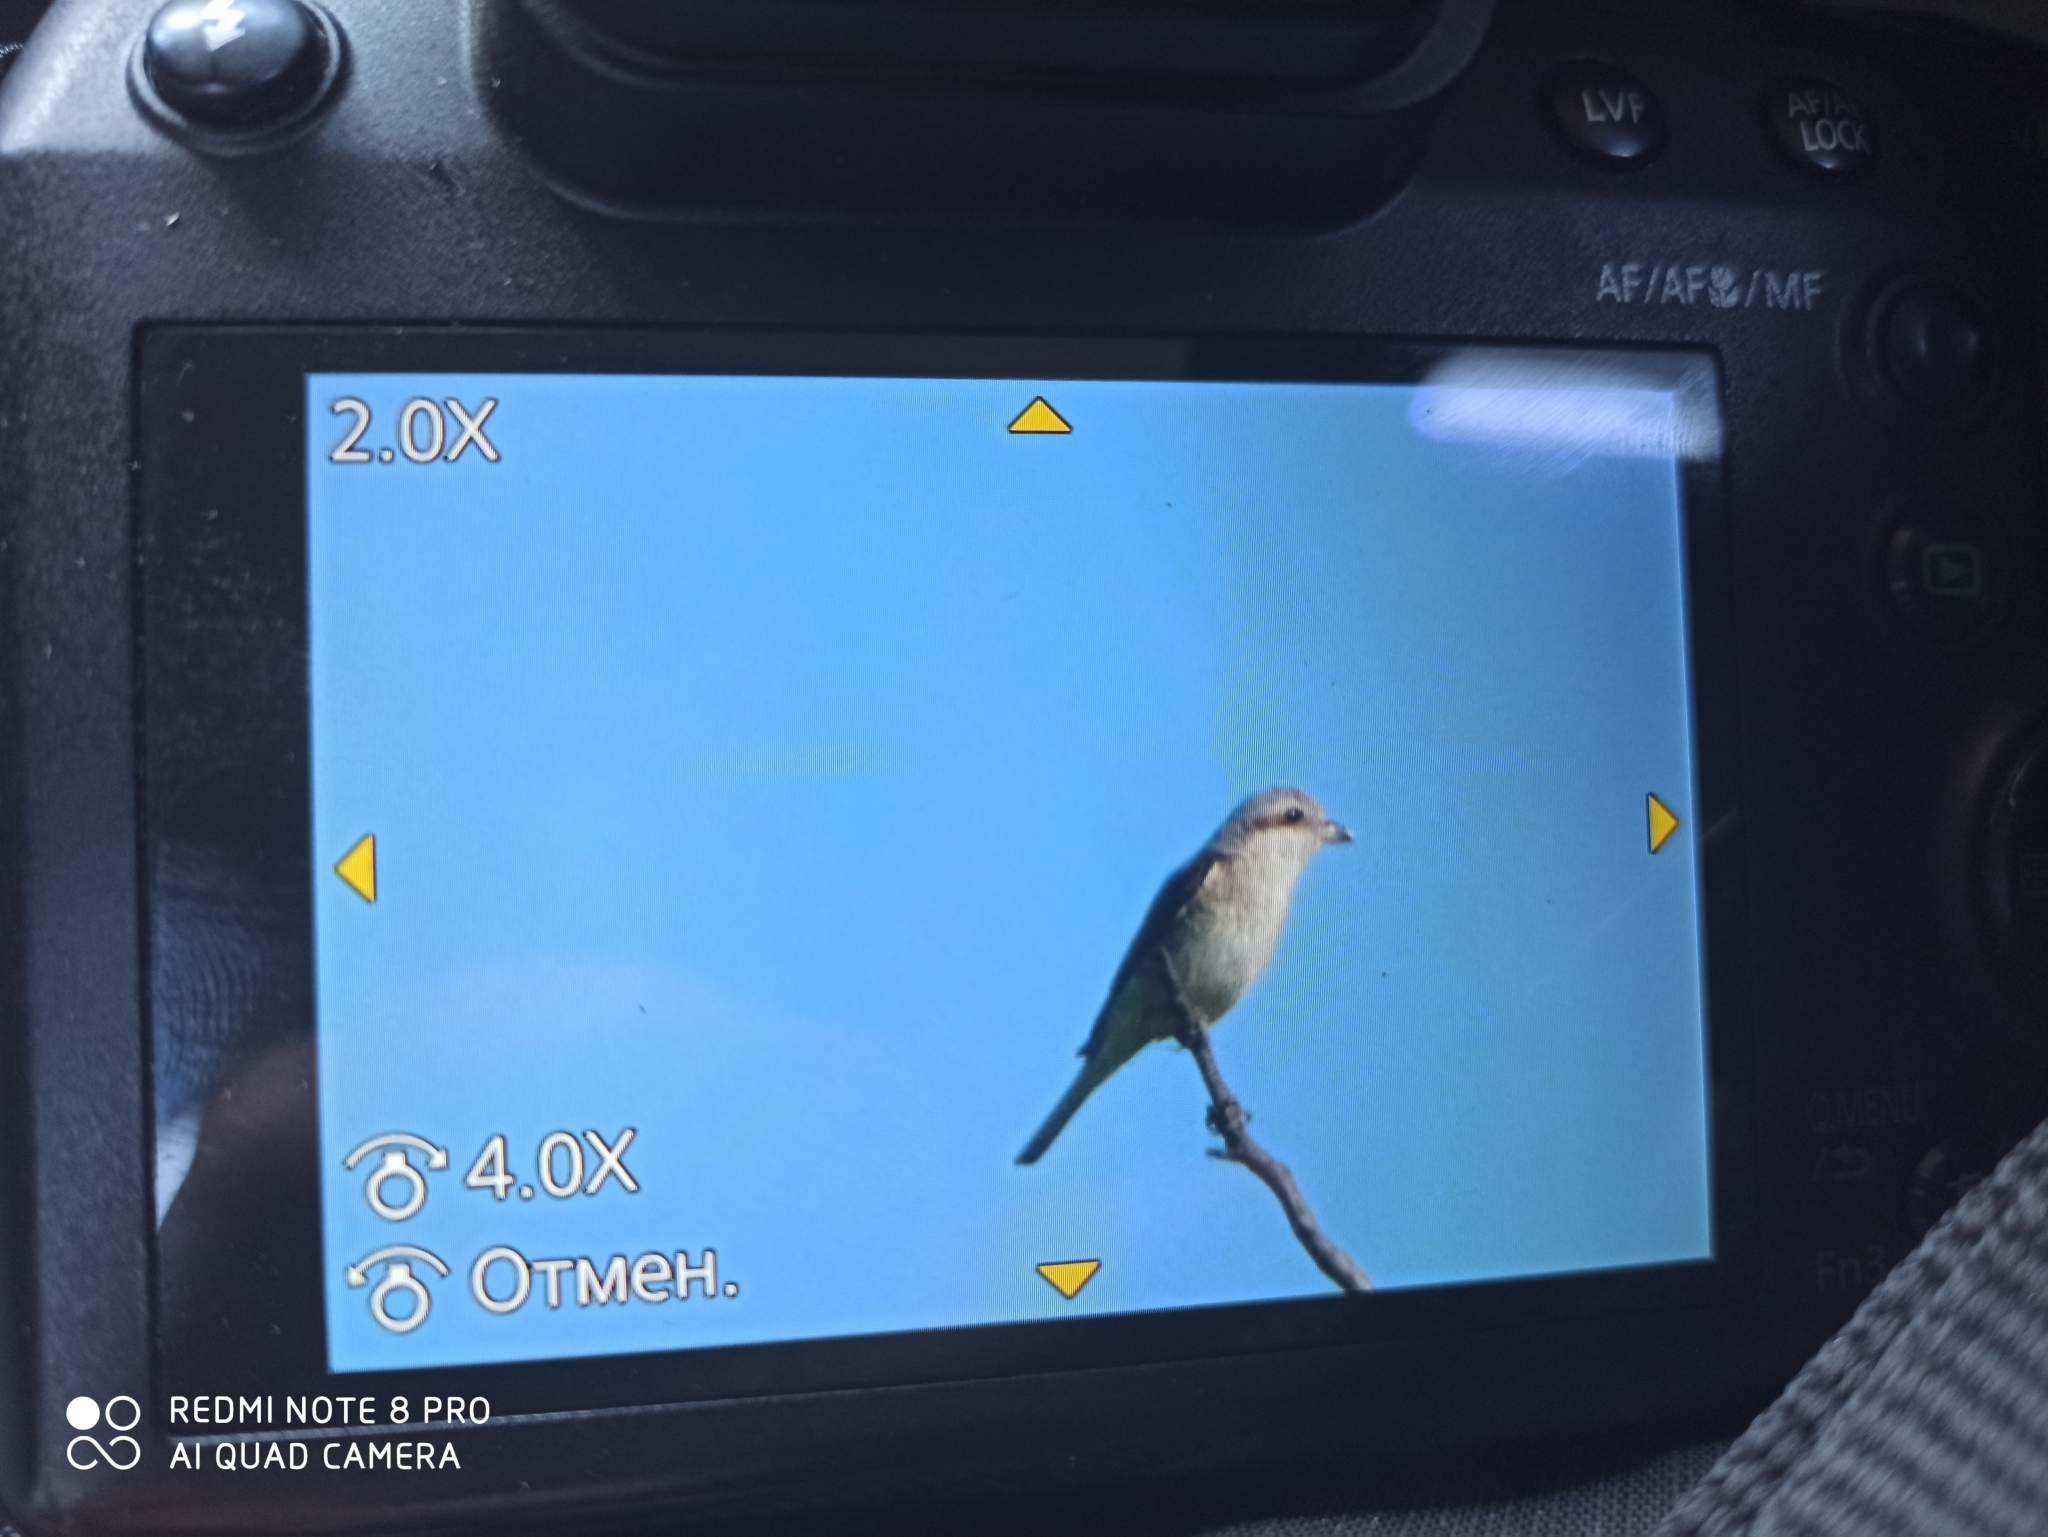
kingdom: Animalia
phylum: Chordata
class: Aves
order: Passeriformes
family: Laniidae
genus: Lanius
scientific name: Lanius collurio
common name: Red-backed shrike
